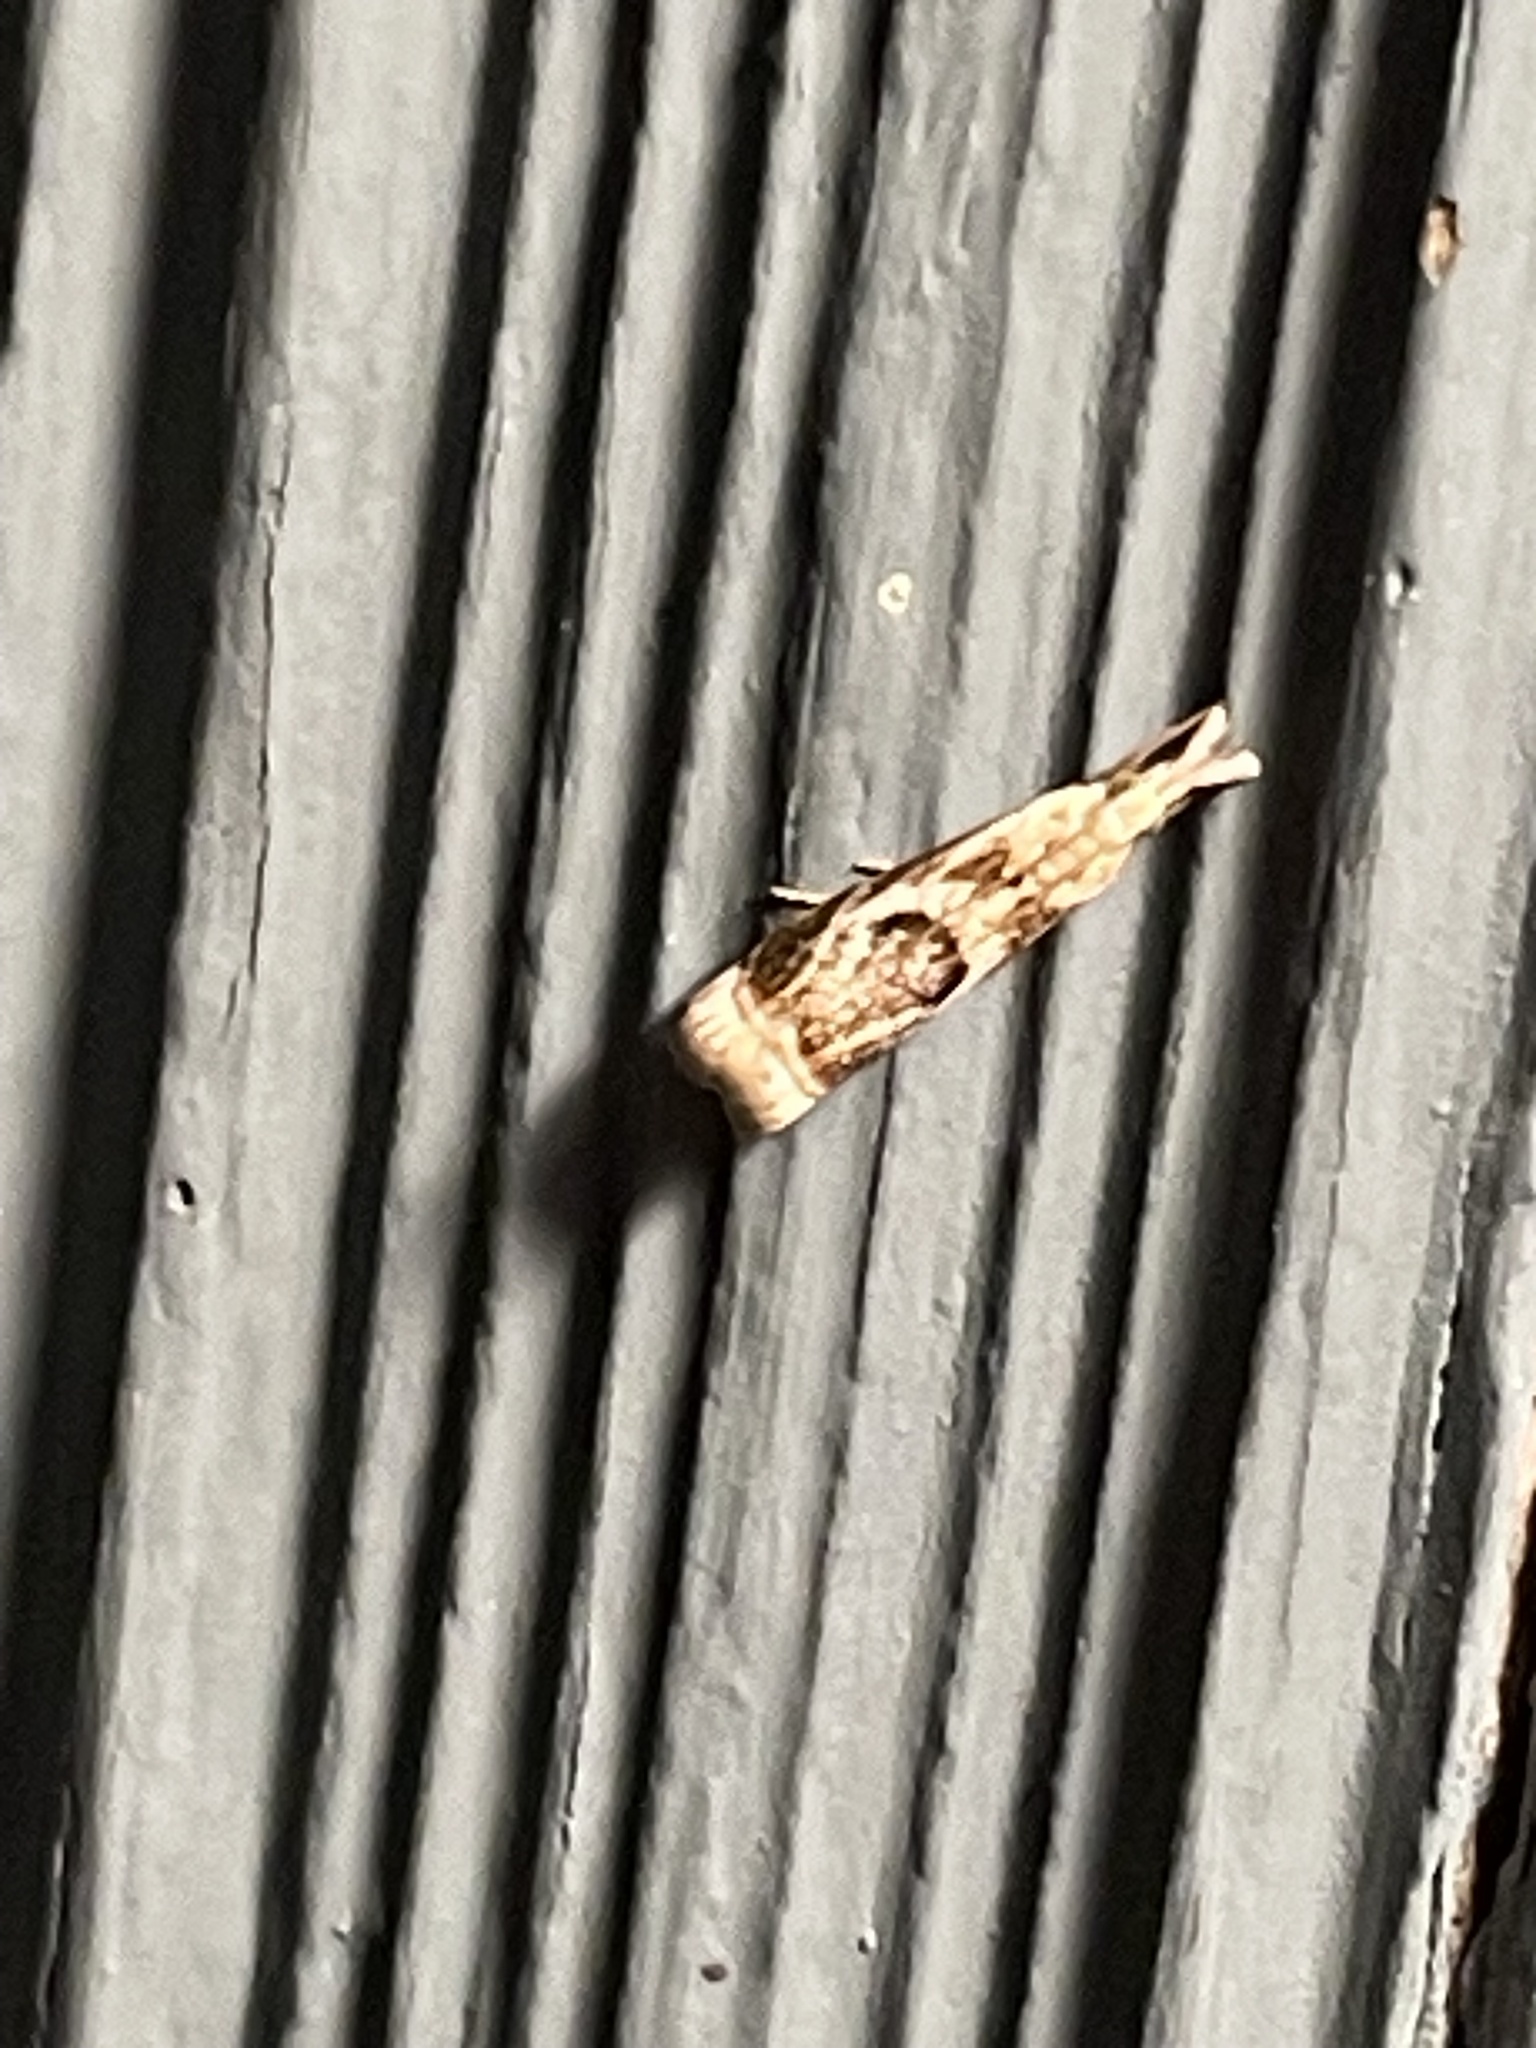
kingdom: Animalia
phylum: Arthropoda
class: Insecta
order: Lepidoptera
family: Crambidae
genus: Microcrambus
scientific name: Microcrambus elegans
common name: Elegant grass-veneer
